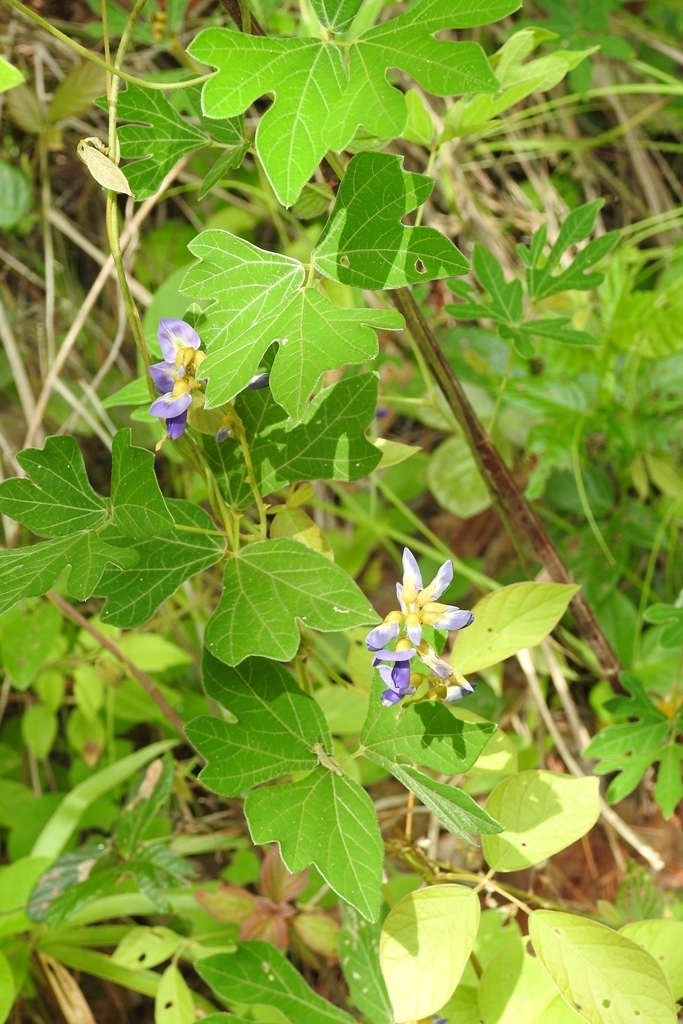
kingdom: Plantae
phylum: Tracheophyta
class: Magnoliopsida
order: Fabales
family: Fabaceae
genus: Pachyrhizus
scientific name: Pachyrhizus ferrugineus
